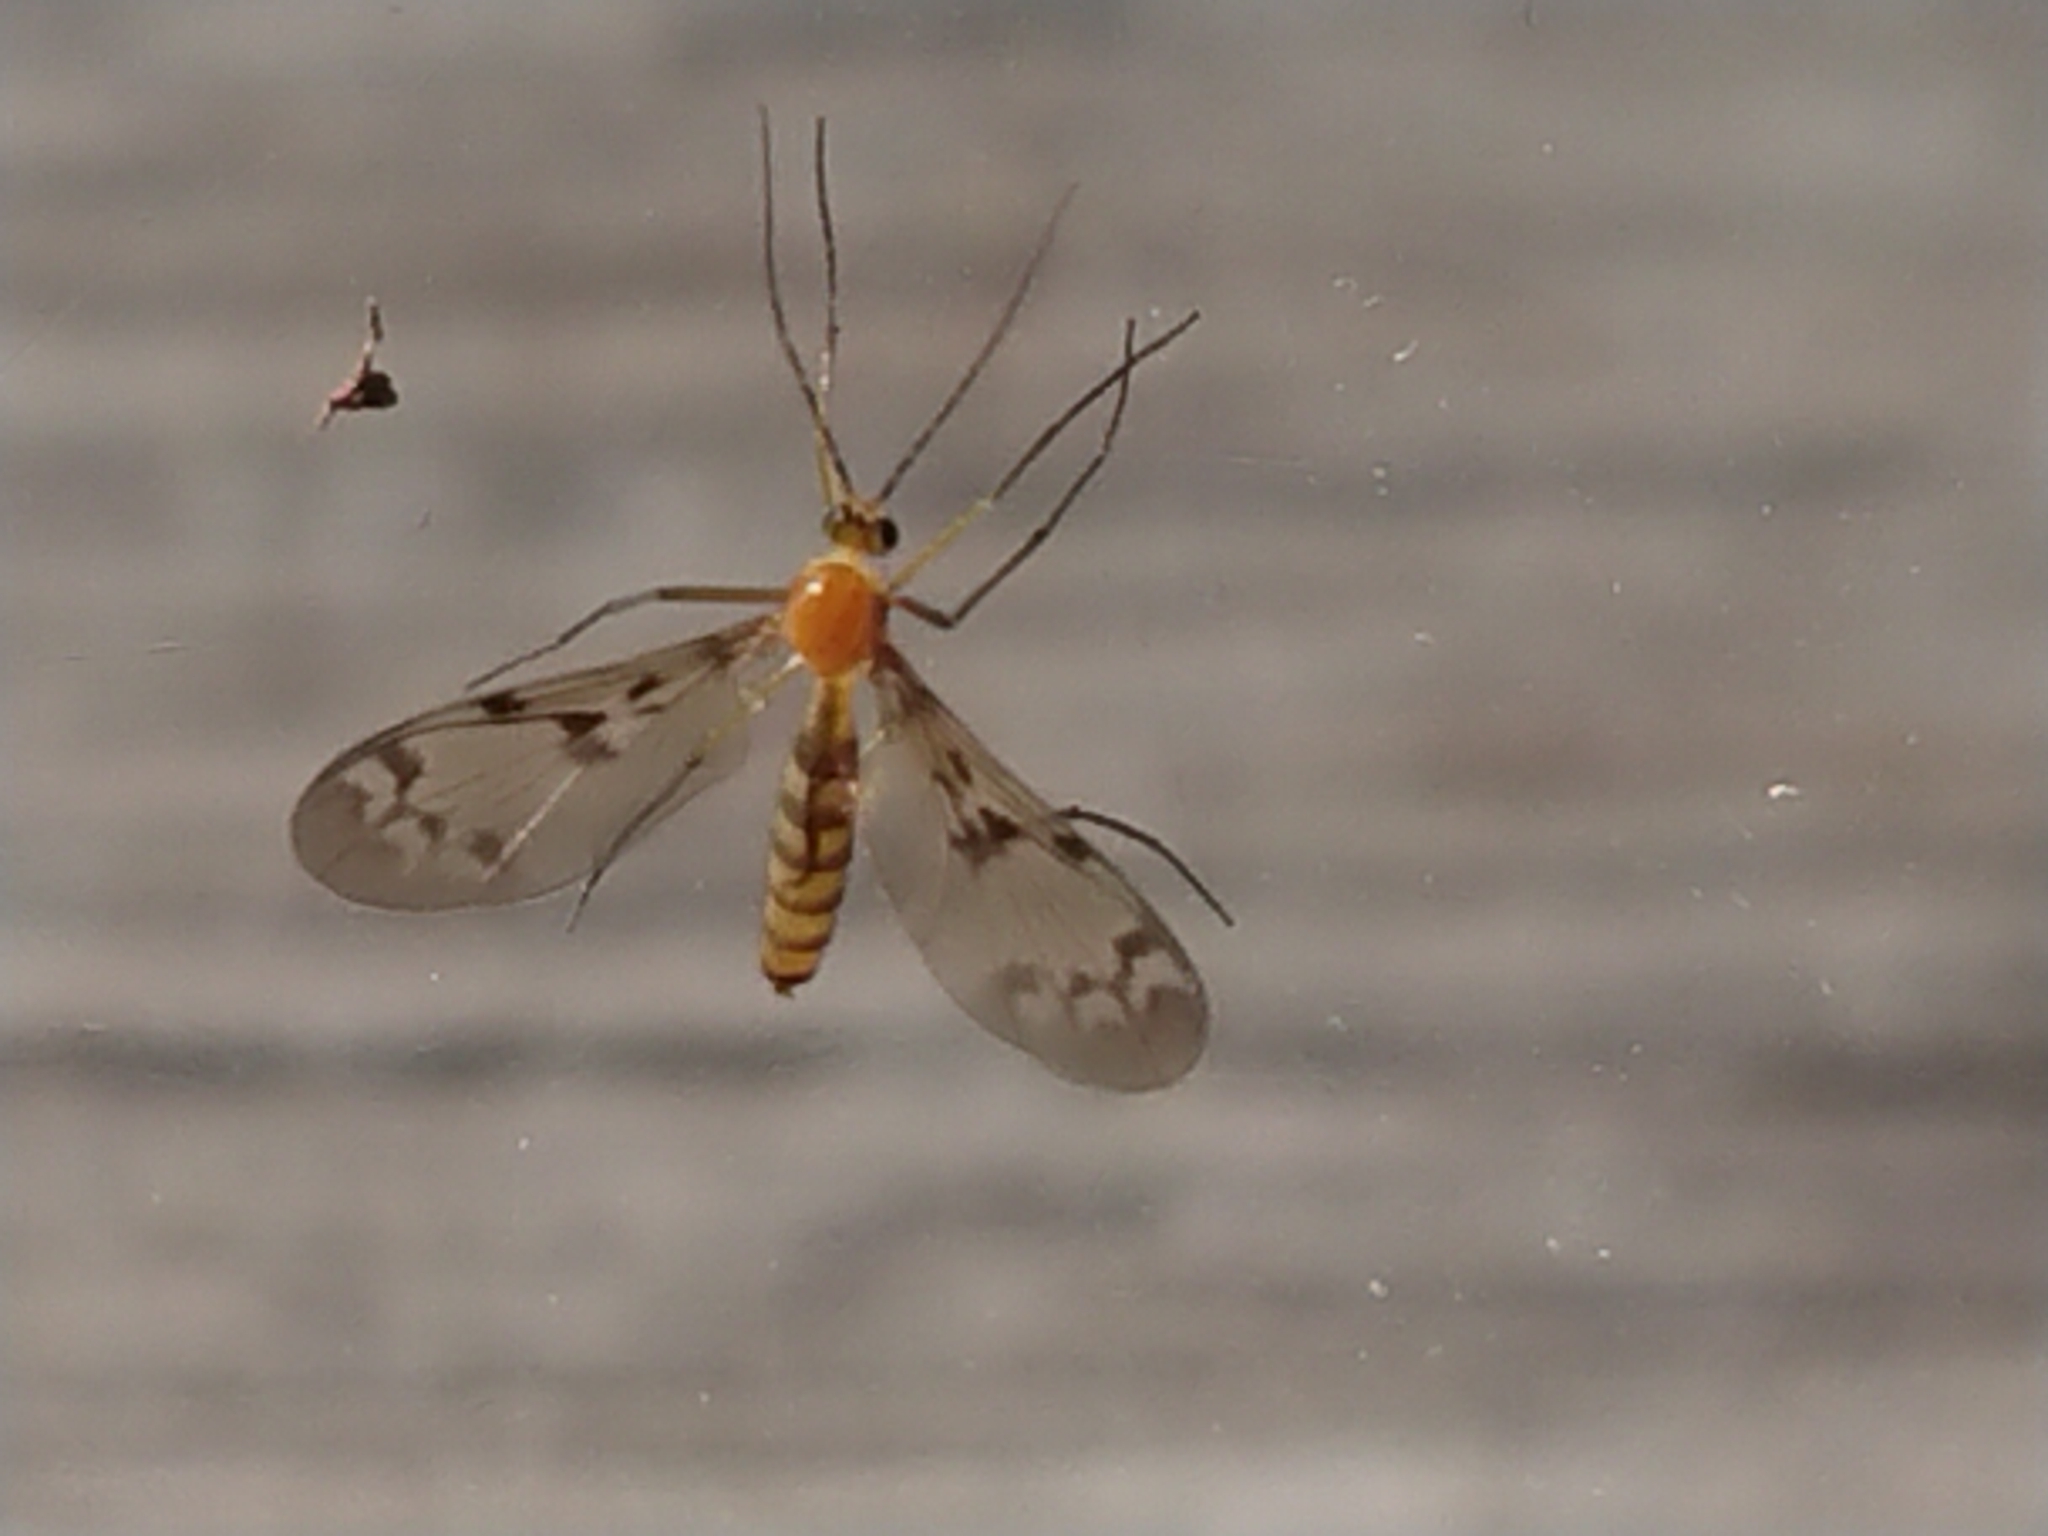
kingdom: Animalia
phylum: Arthropoda
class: Insecta
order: Diptera
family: Keroplatidae
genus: Chiasmoneura
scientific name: Chiasmoneura milligani
